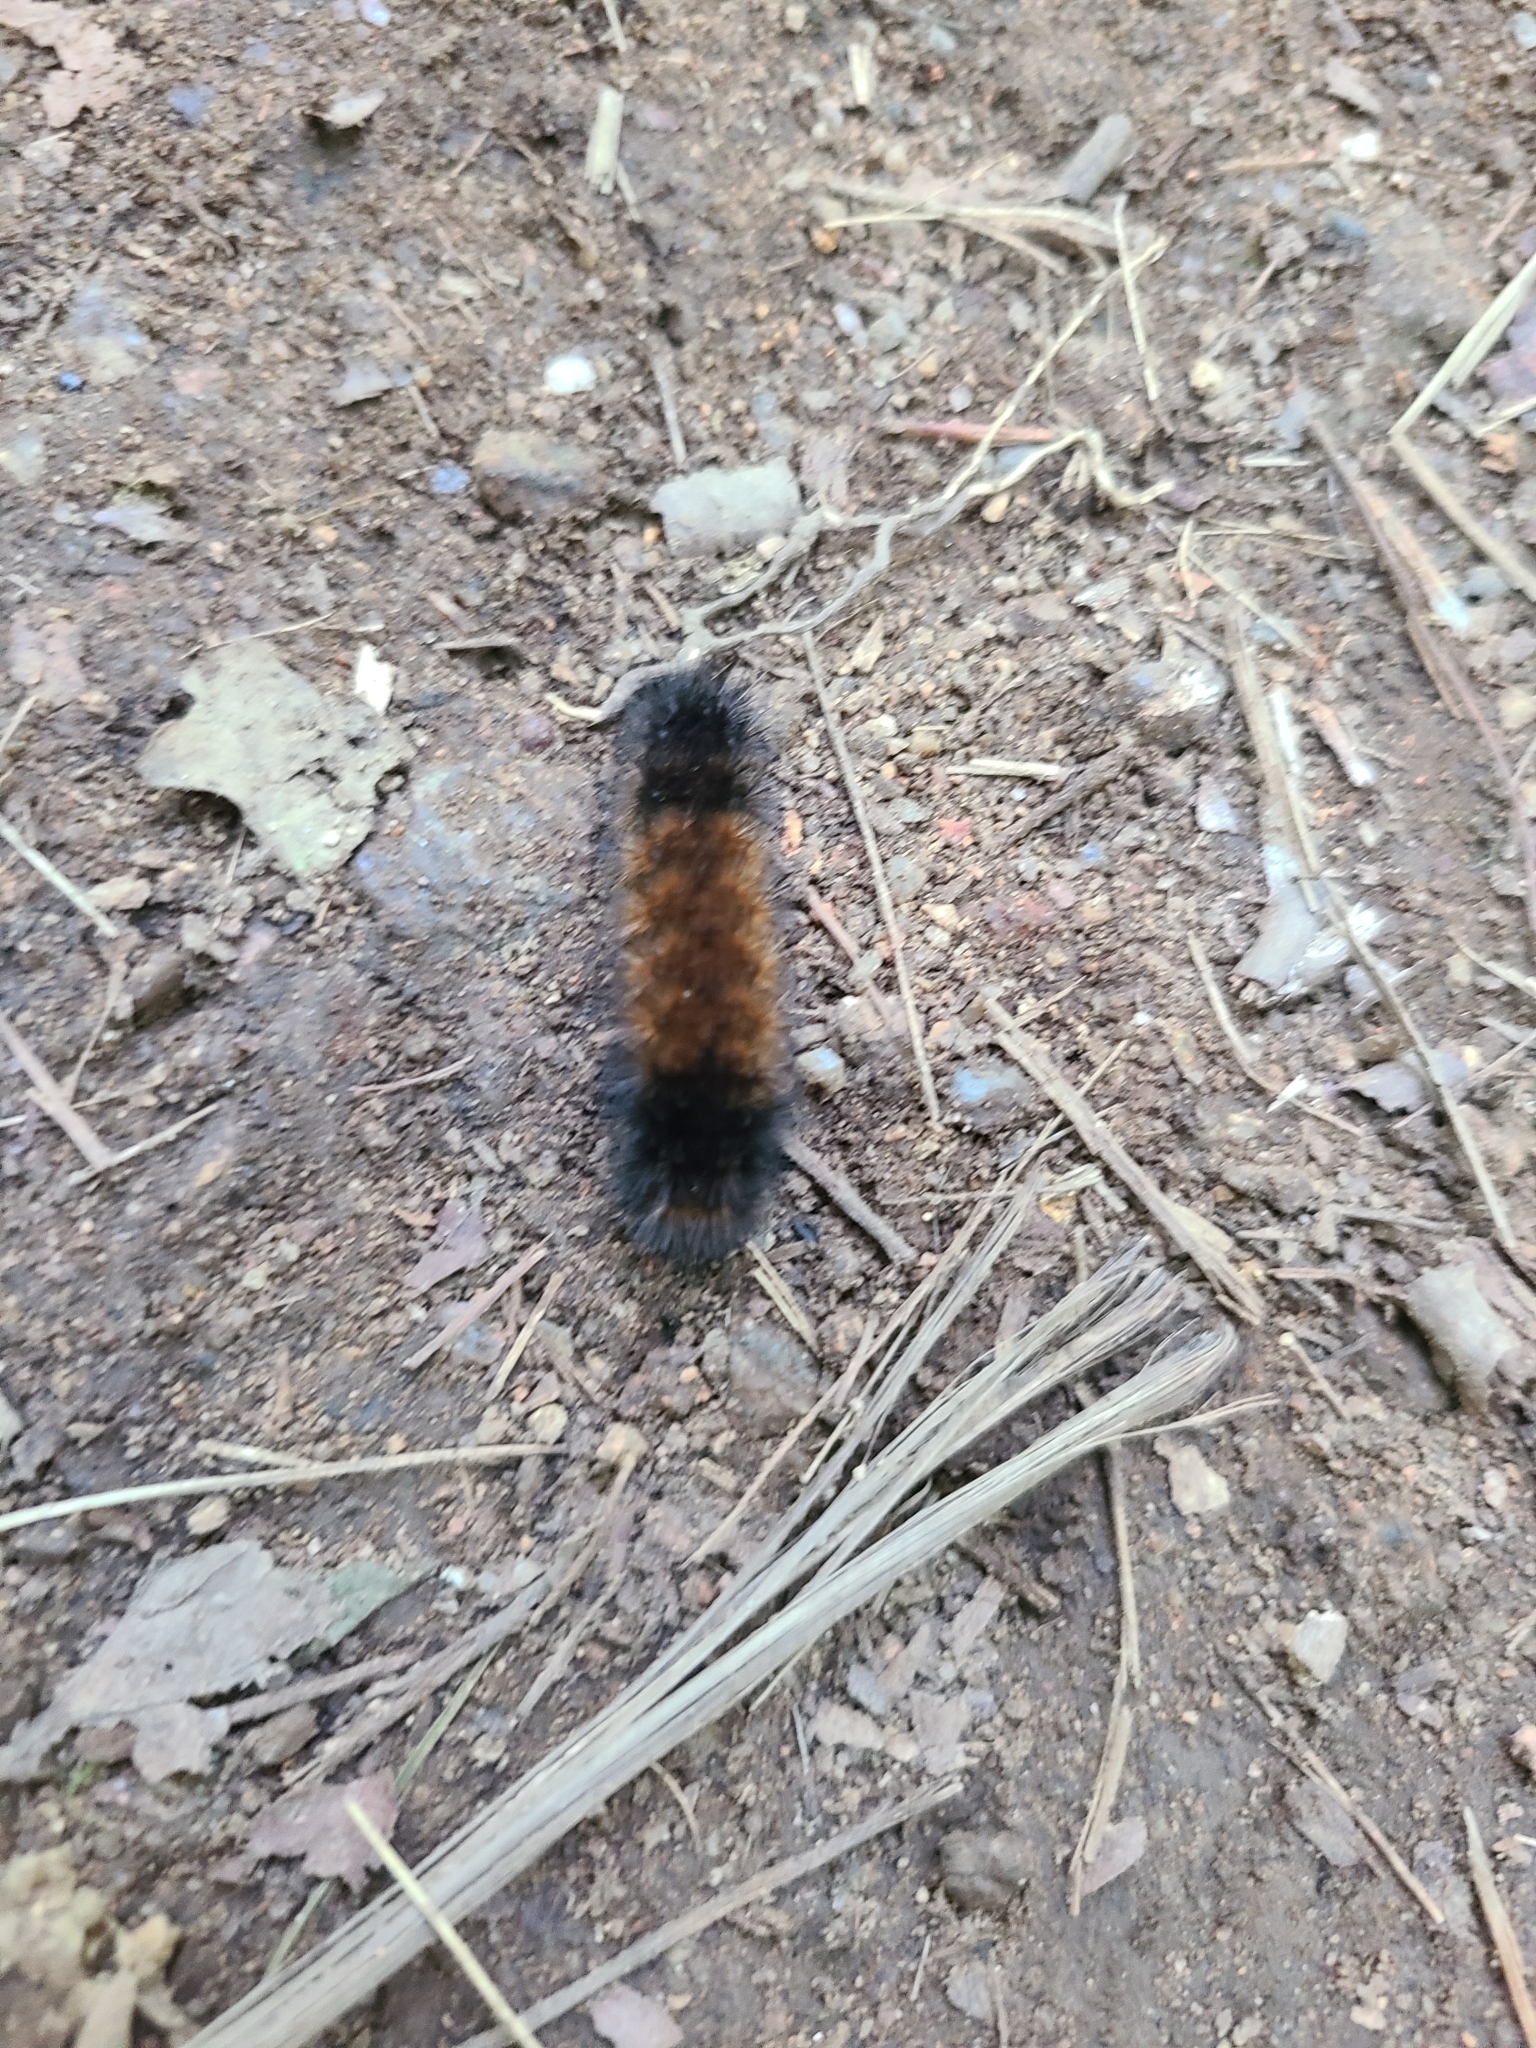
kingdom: Animalia
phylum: Arthropoda
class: Insecta
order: Lepidoptera
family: Erebidae
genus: Pyrrharctia
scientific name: Pyrrharctia isabella
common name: Isabella tiger moth
